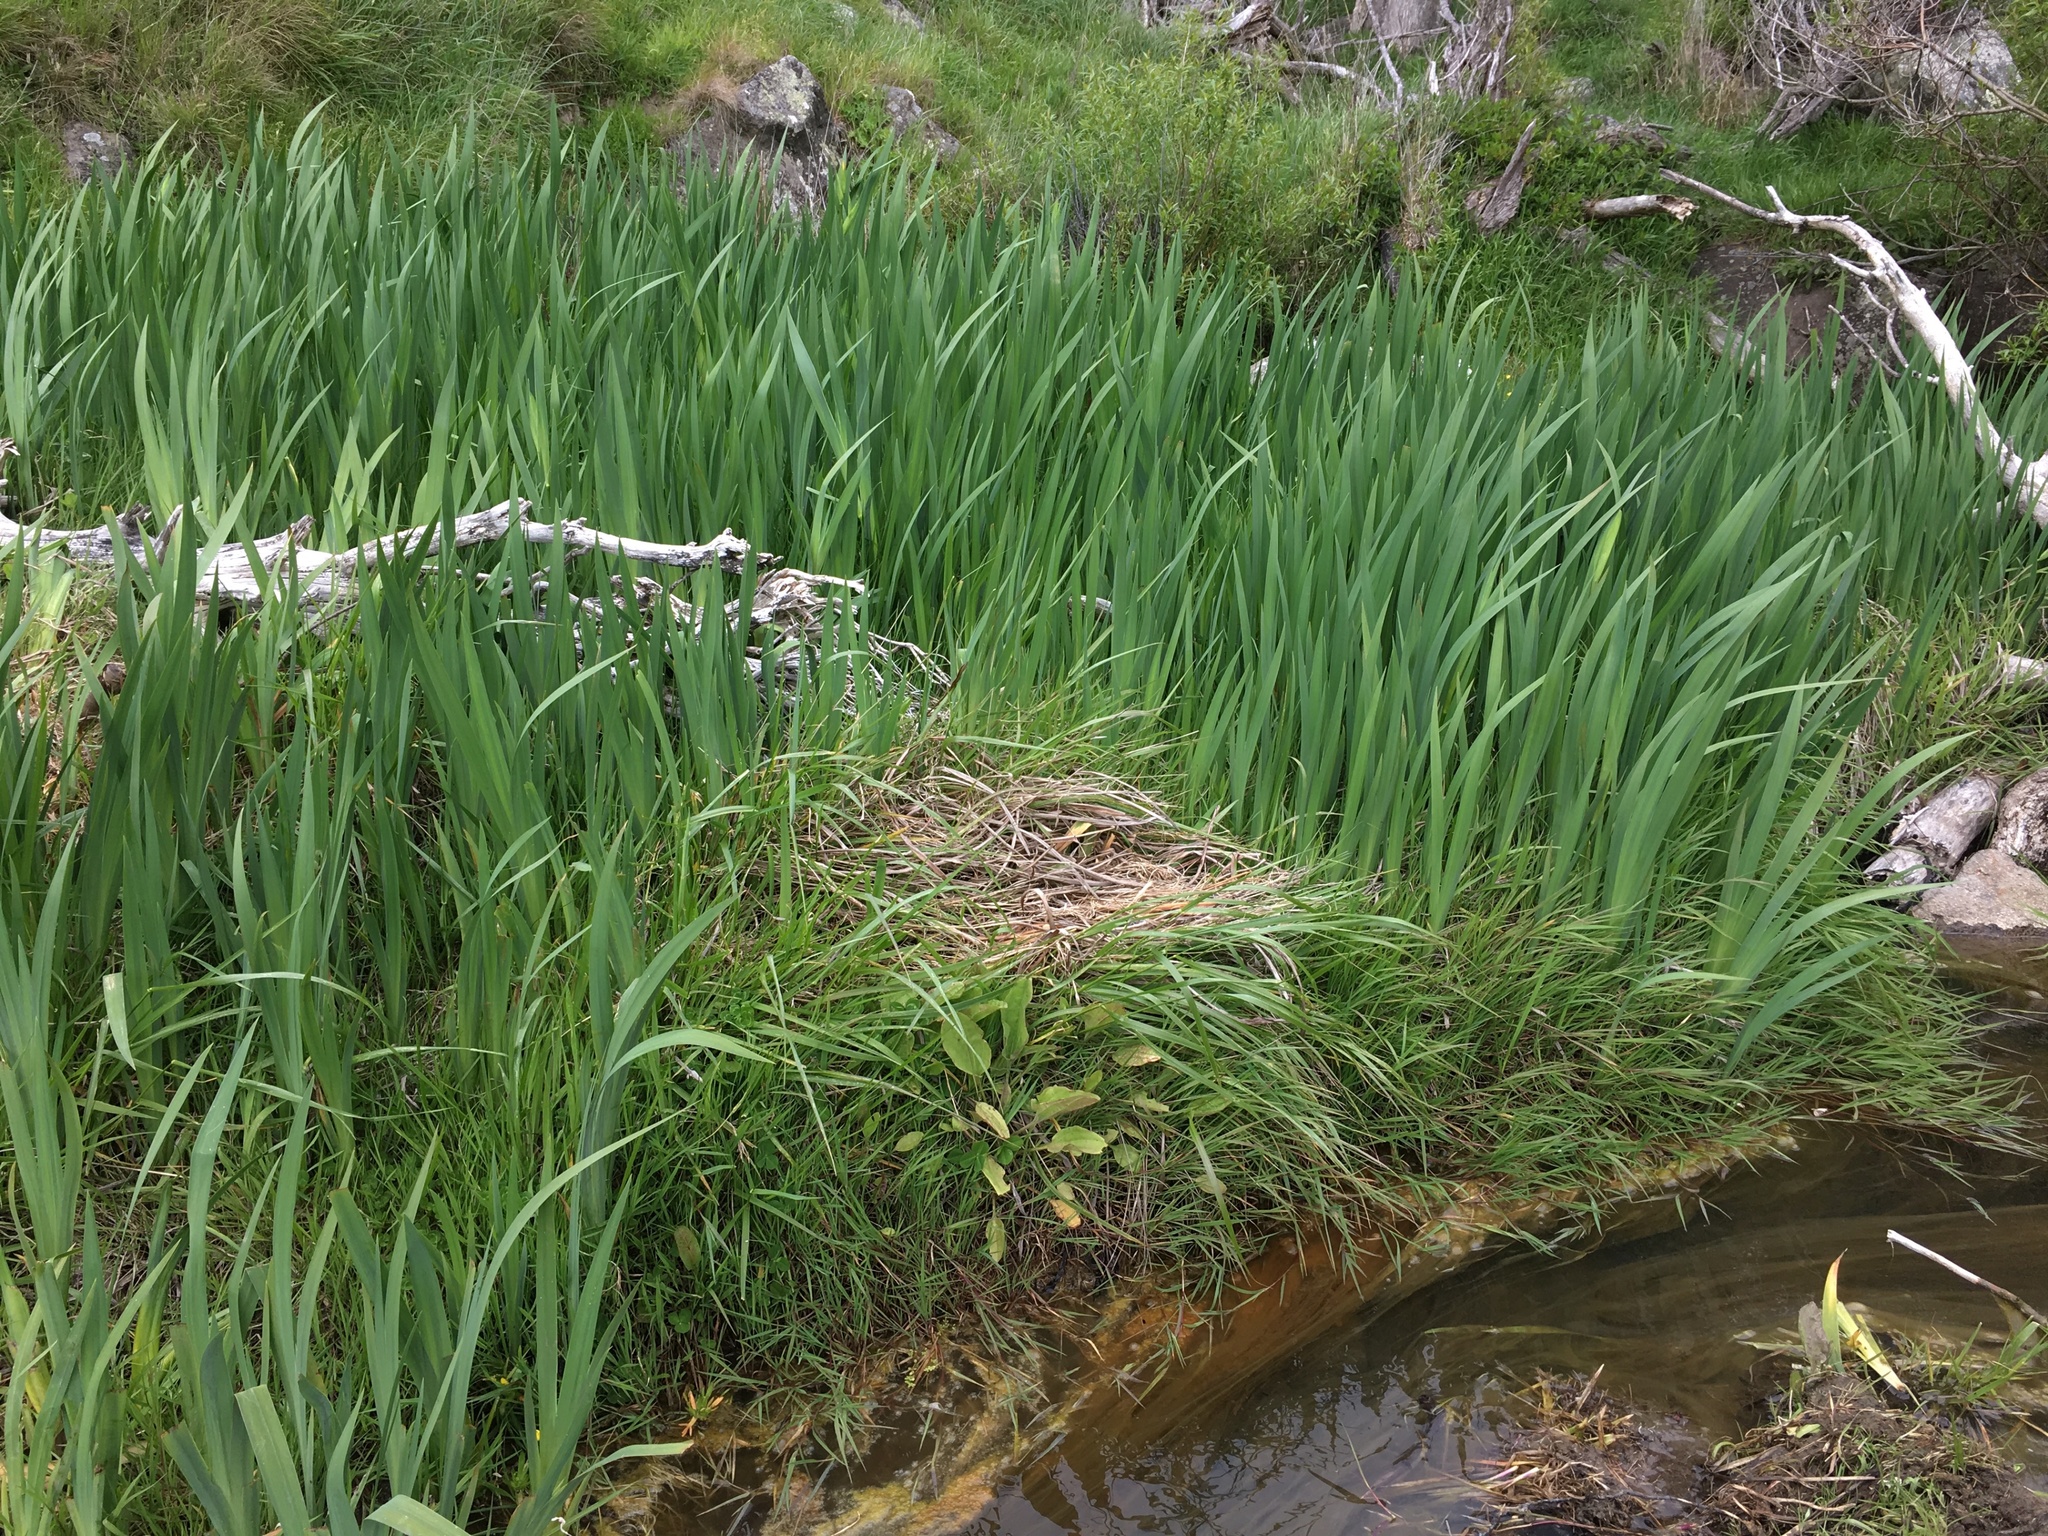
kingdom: Plantae
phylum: Tracheophyta
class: Liliopsida
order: Asparagales
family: Iridaceae
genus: Iris
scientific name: Iris pseudacorus
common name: Yellow flag
